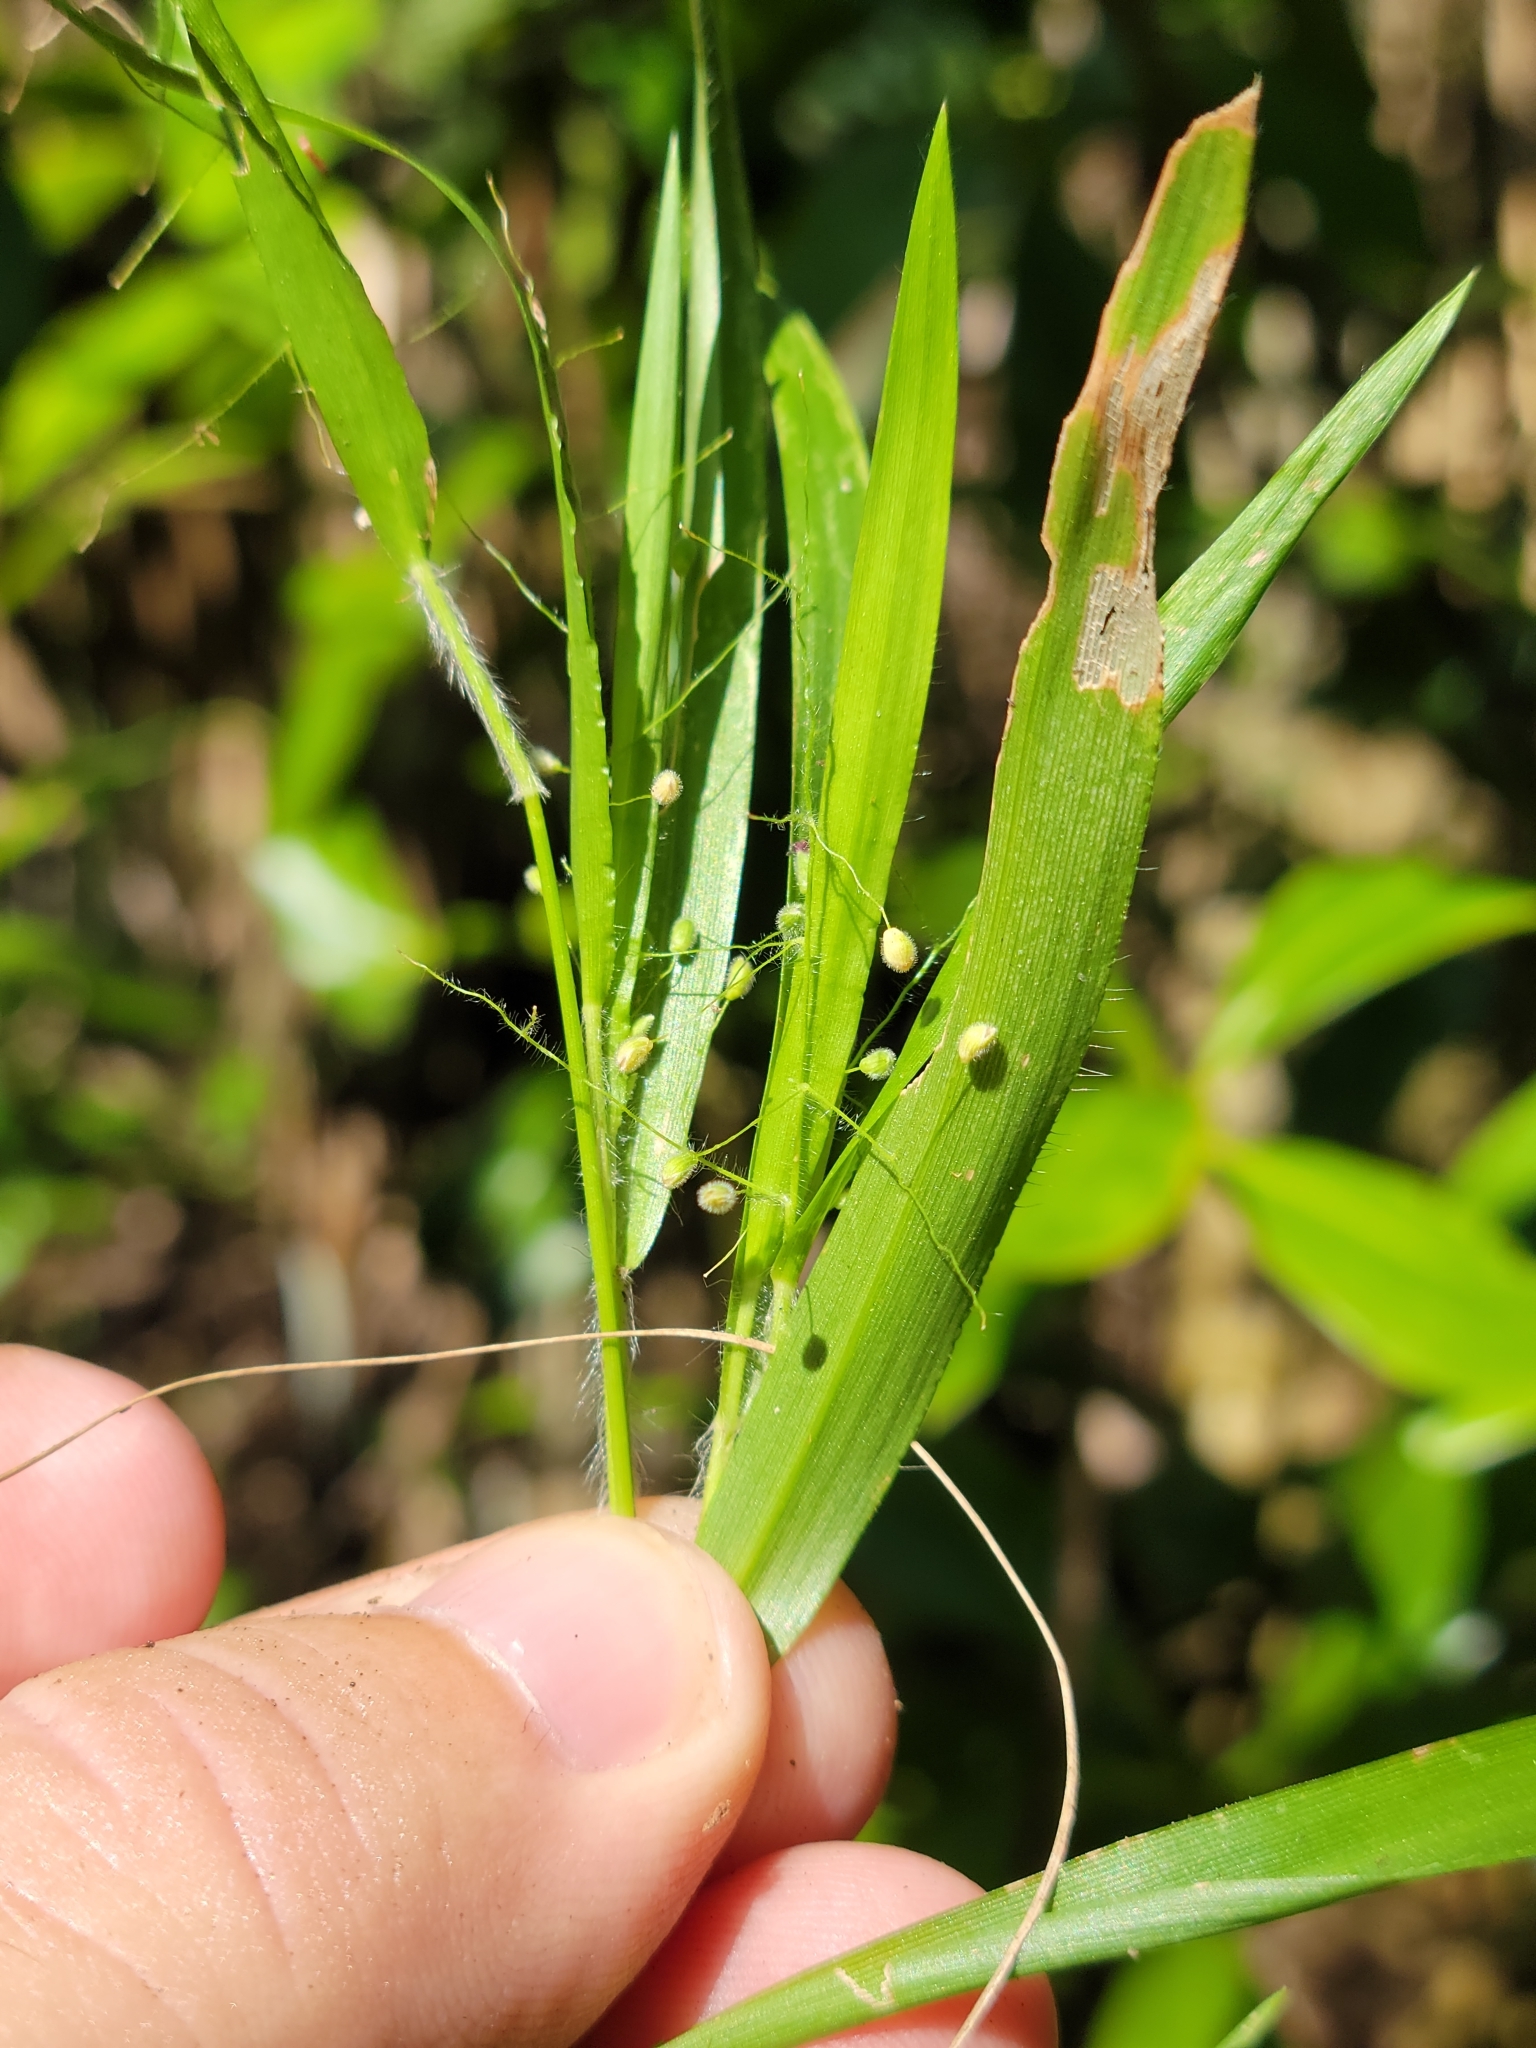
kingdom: Plantae
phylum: Tracheophyta
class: Liliopsida
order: Poales
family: Poaceae
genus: Dichanthelium
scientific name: Dichanthelium laxiflorum
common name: Soft-tuft panic grass
